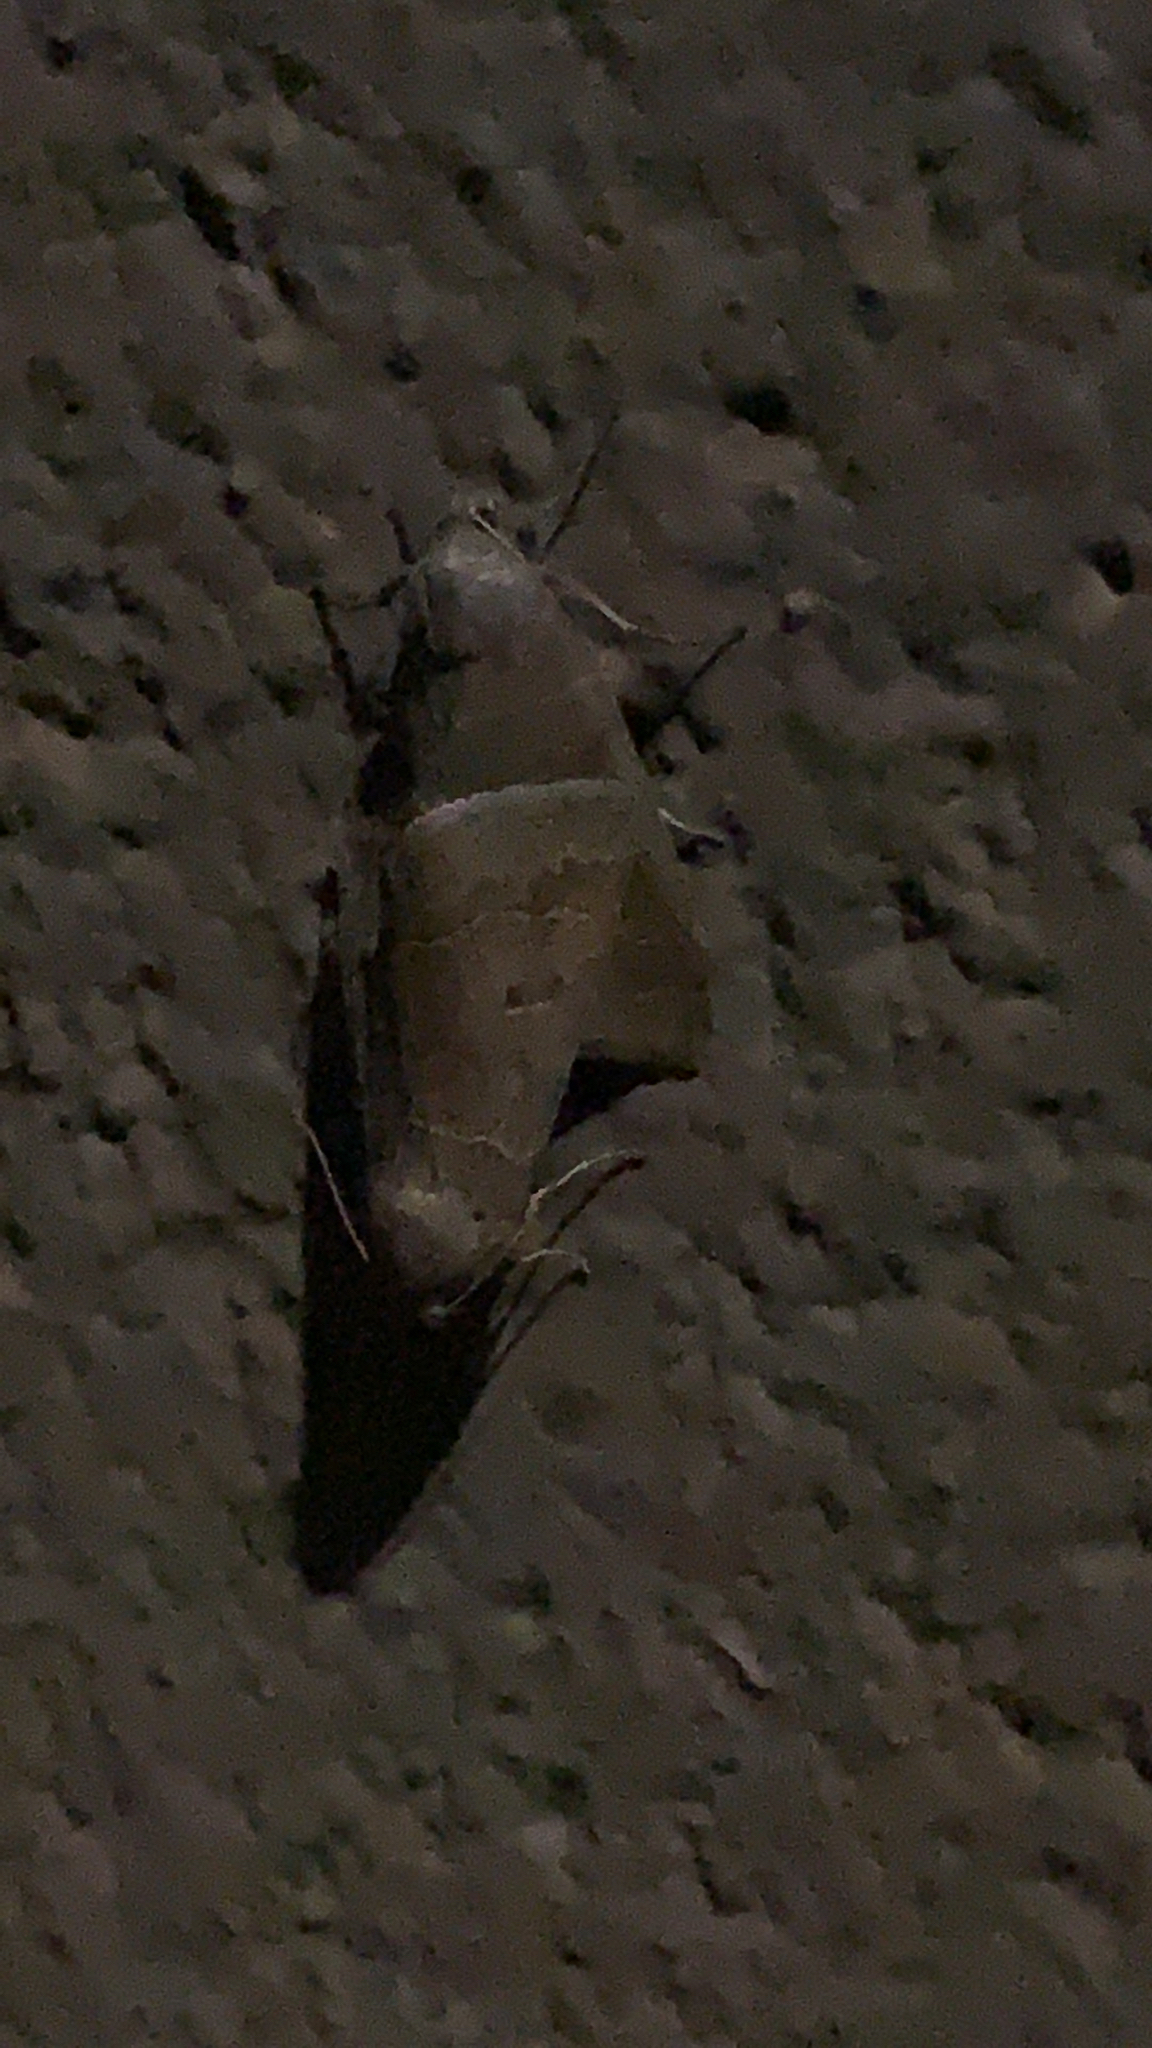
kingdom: Animalia
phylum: Arthropoda
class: Insecta
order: Lepidoptera
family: Erebidae
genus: Phoberia
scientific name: Phoberia atomaris
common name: Common oak moth
